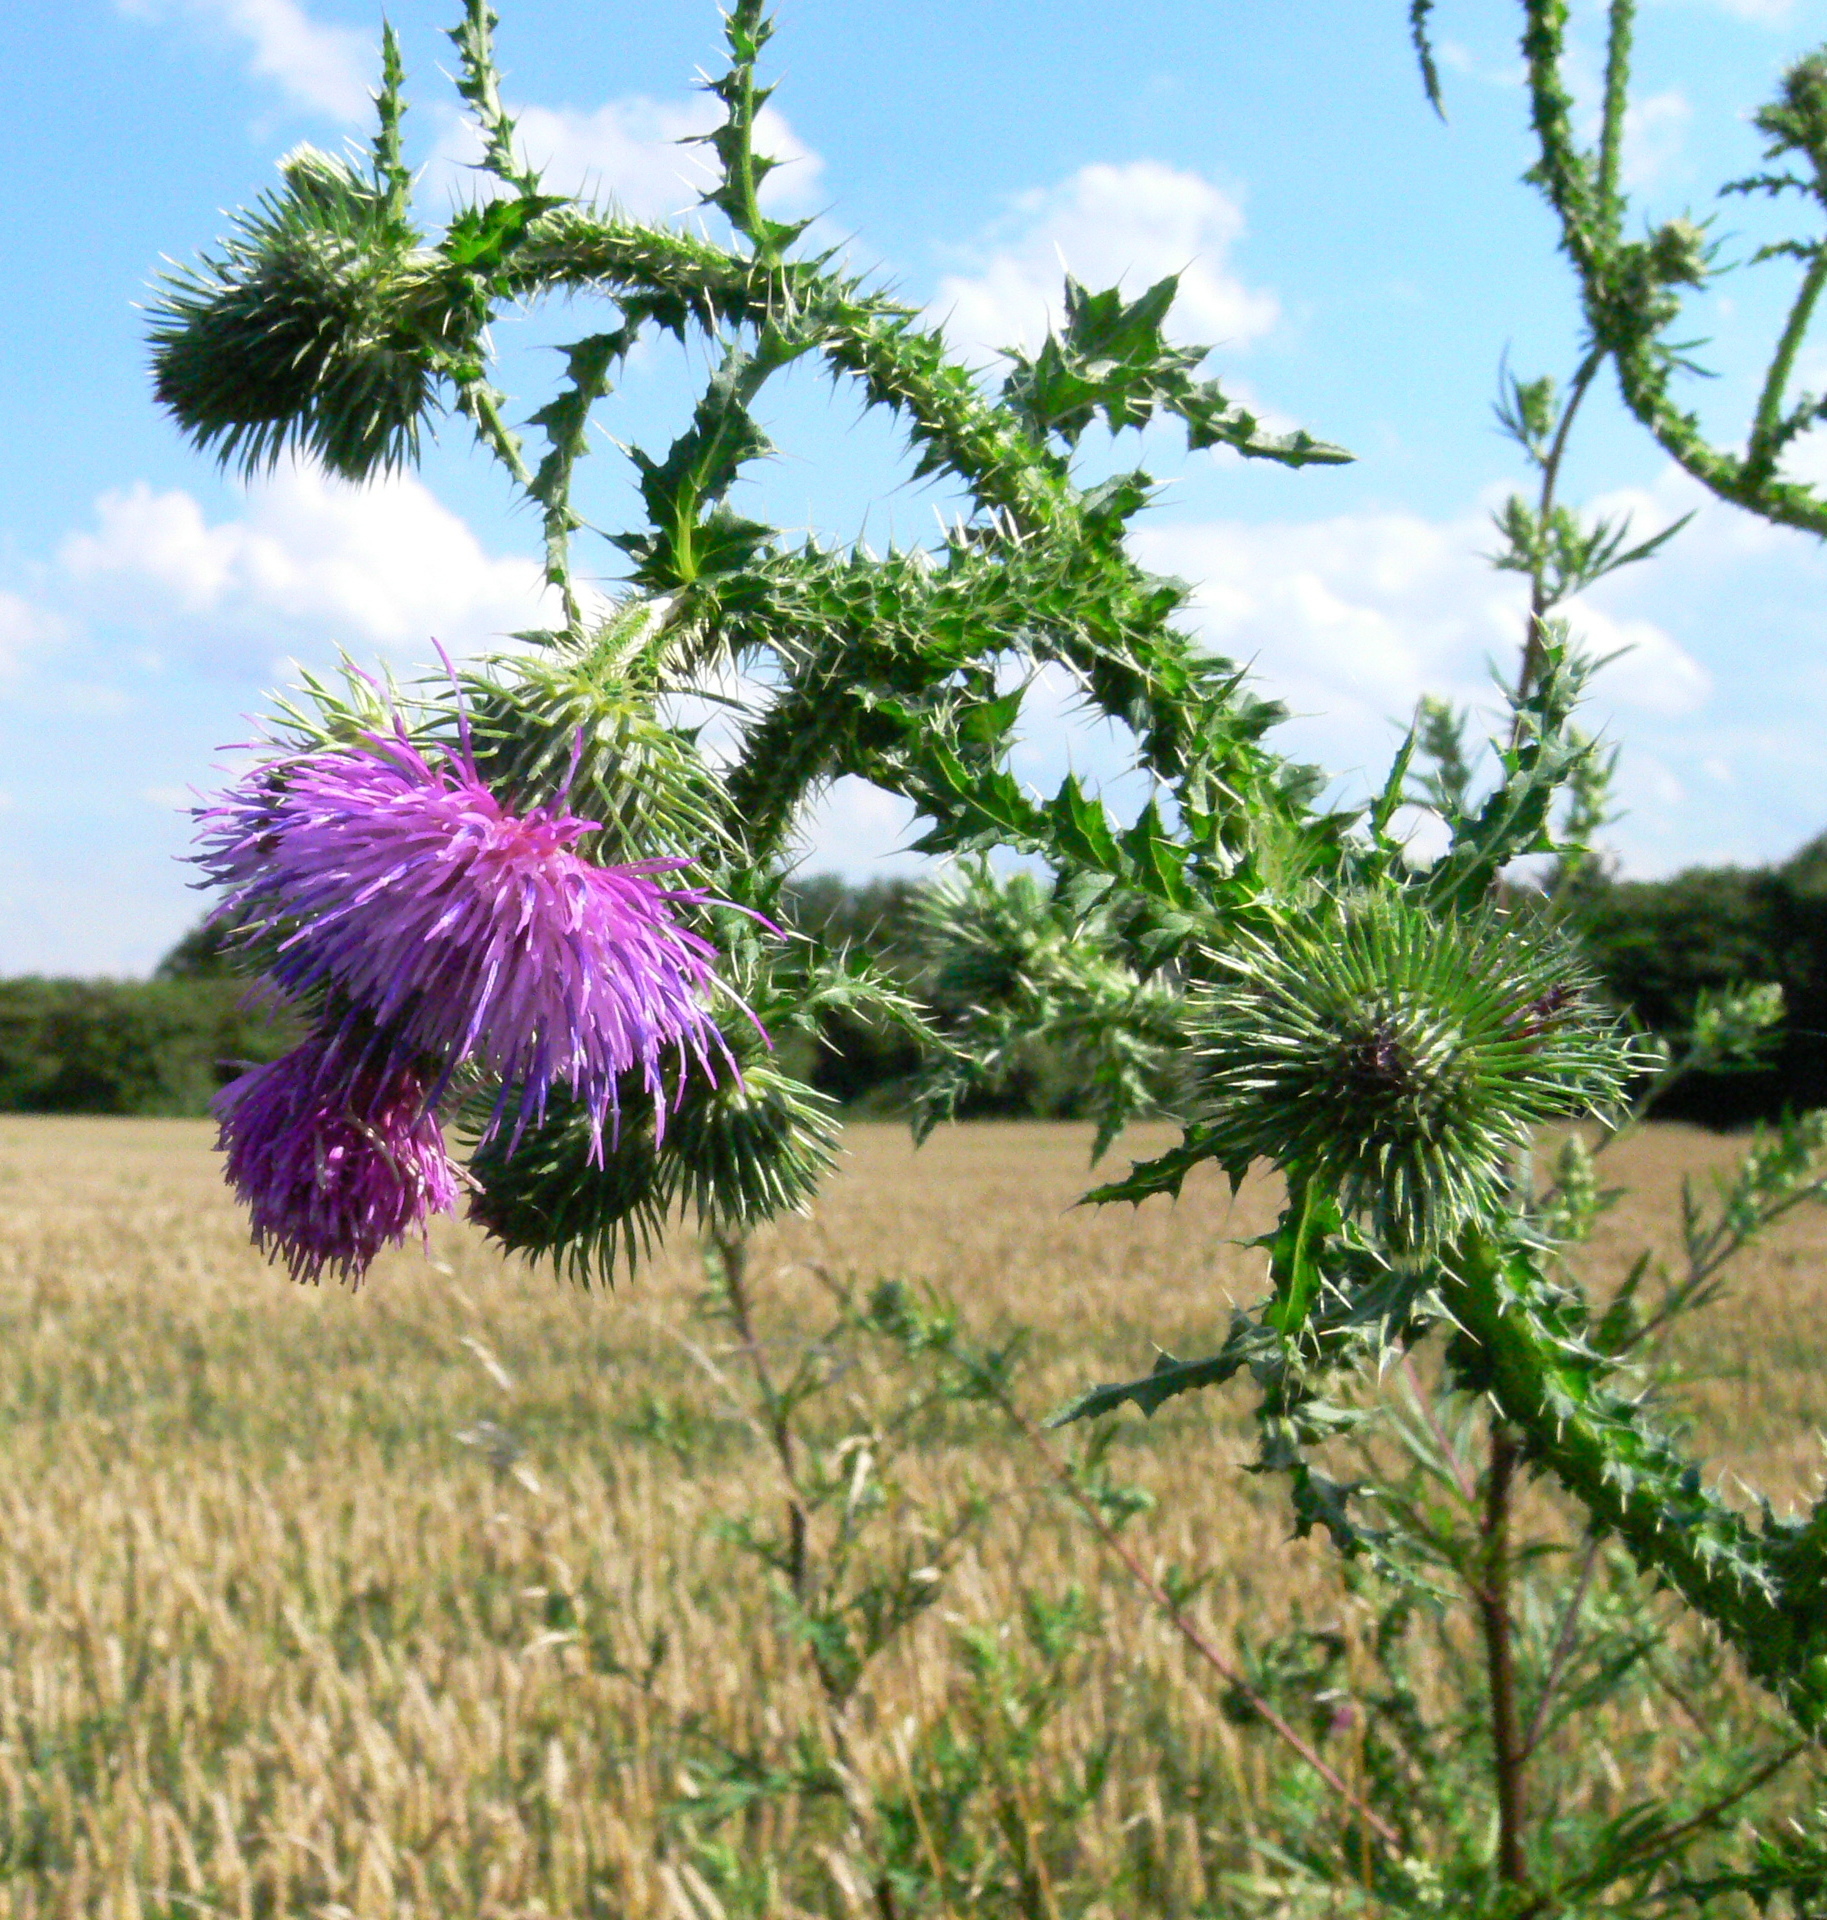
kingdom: Plantae
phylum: Tracheophyta
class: Magnoliopsida
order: Asterales
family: Asteraceae
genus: Carduus
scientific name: Carduus acanthoides
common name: Plumeless thistle
